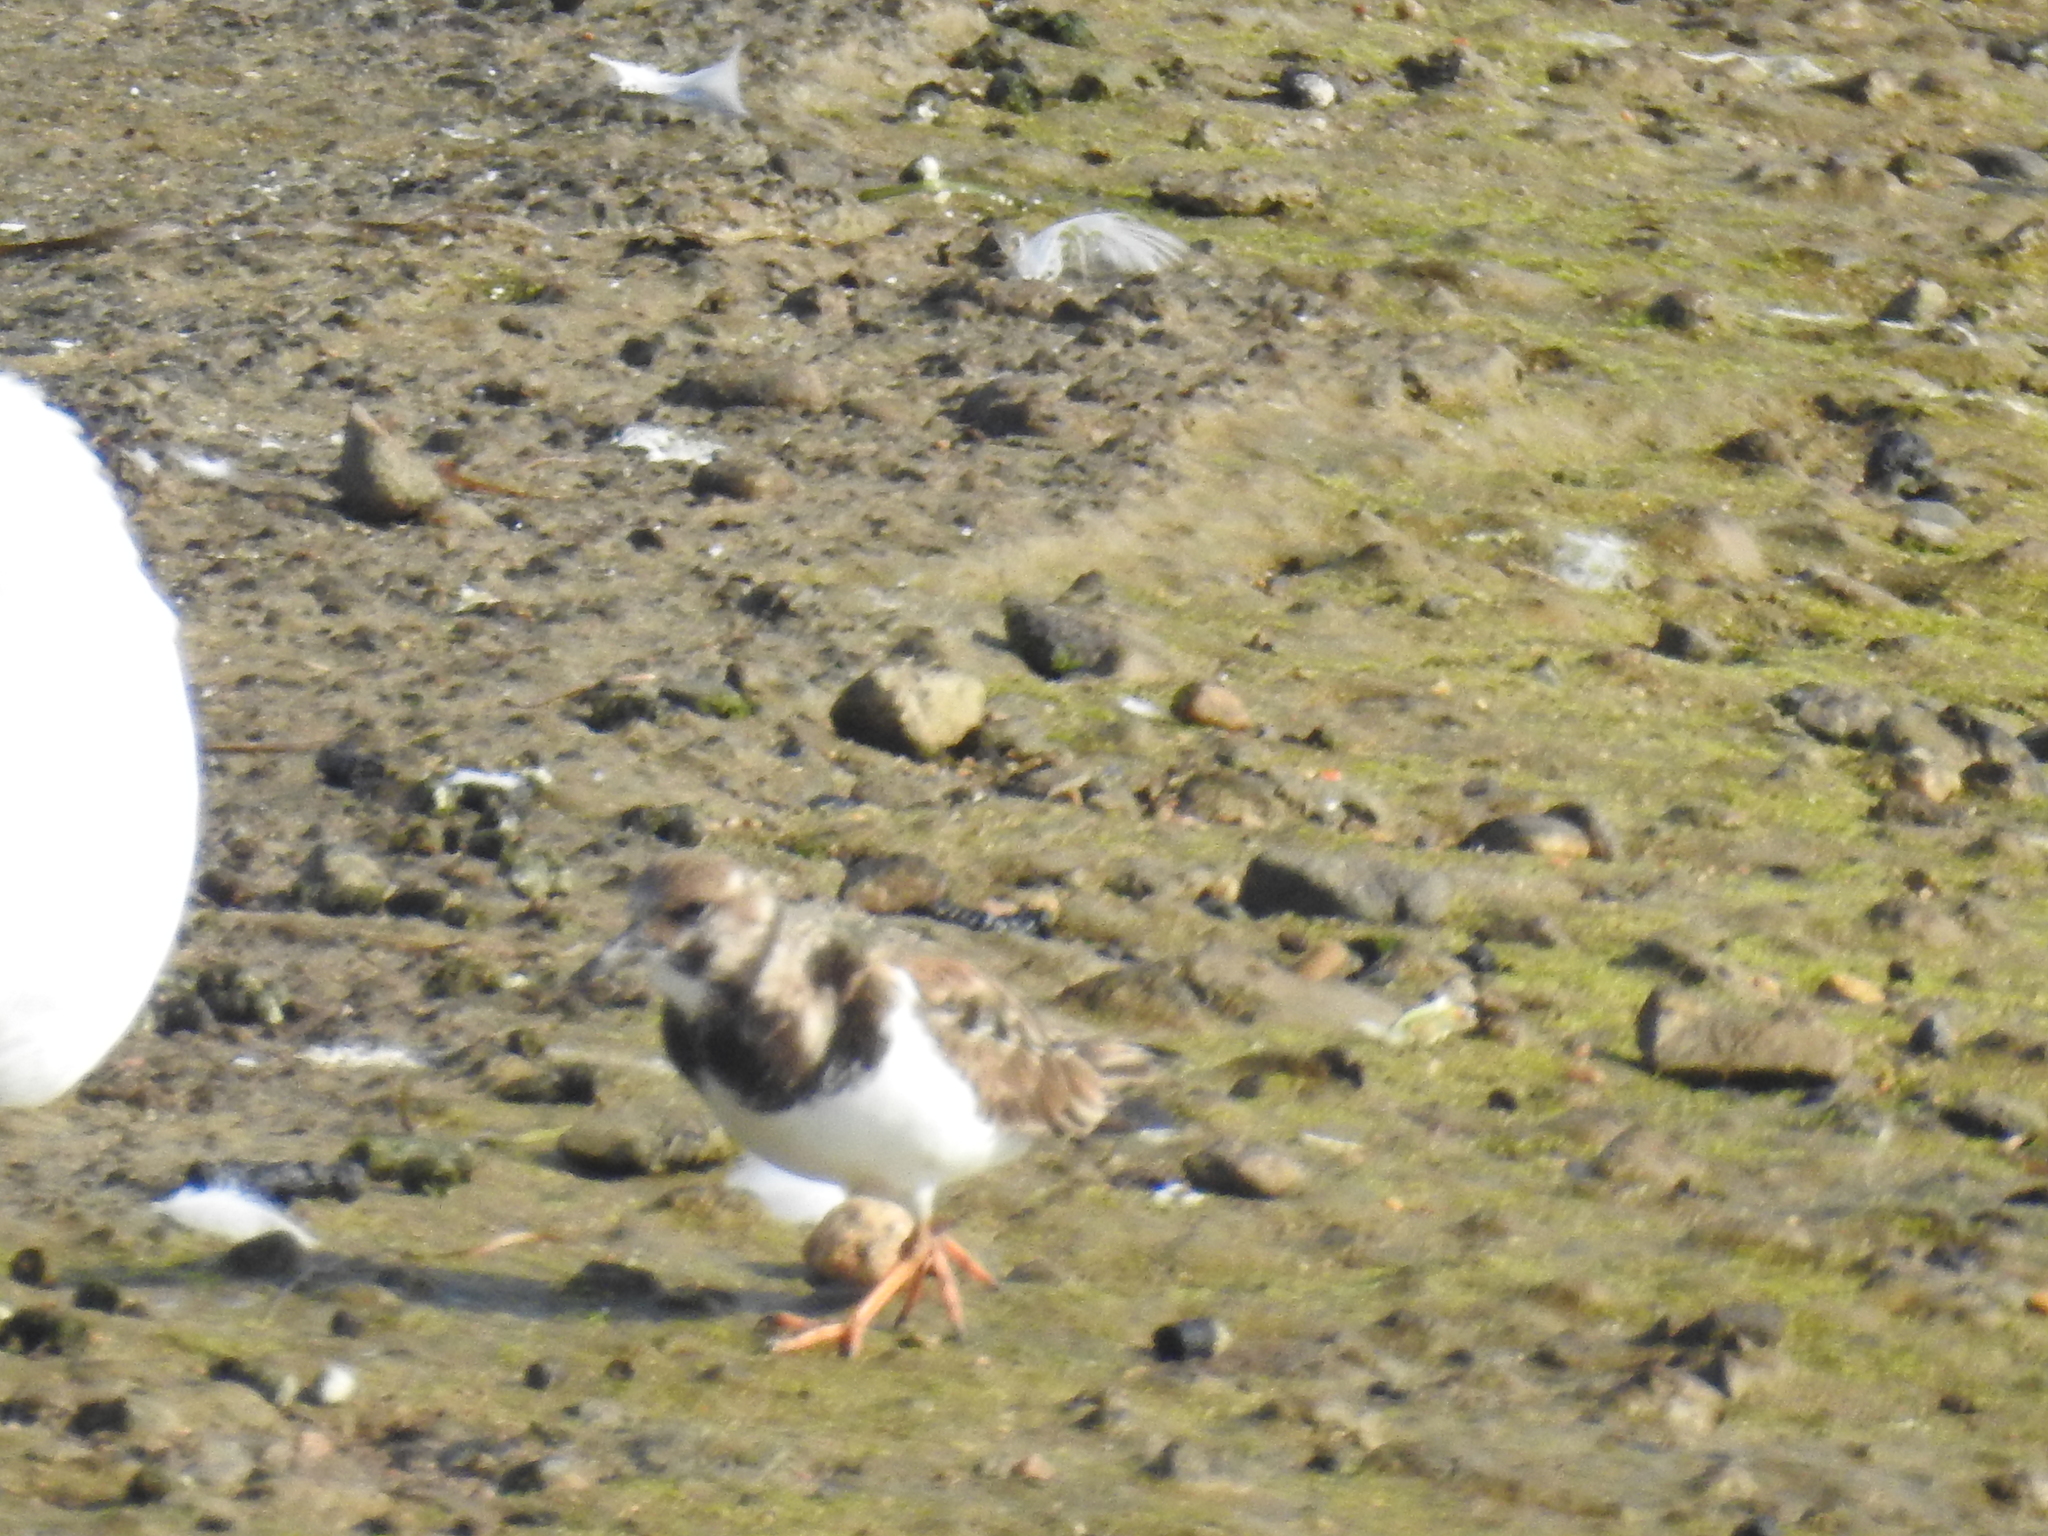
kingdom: Animalia
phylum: Chordata
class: Aves
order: Charadriiformes
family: Scolopacidae
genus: Arenaria
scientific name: Arenaria interpres
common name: Ruddy turnstone
